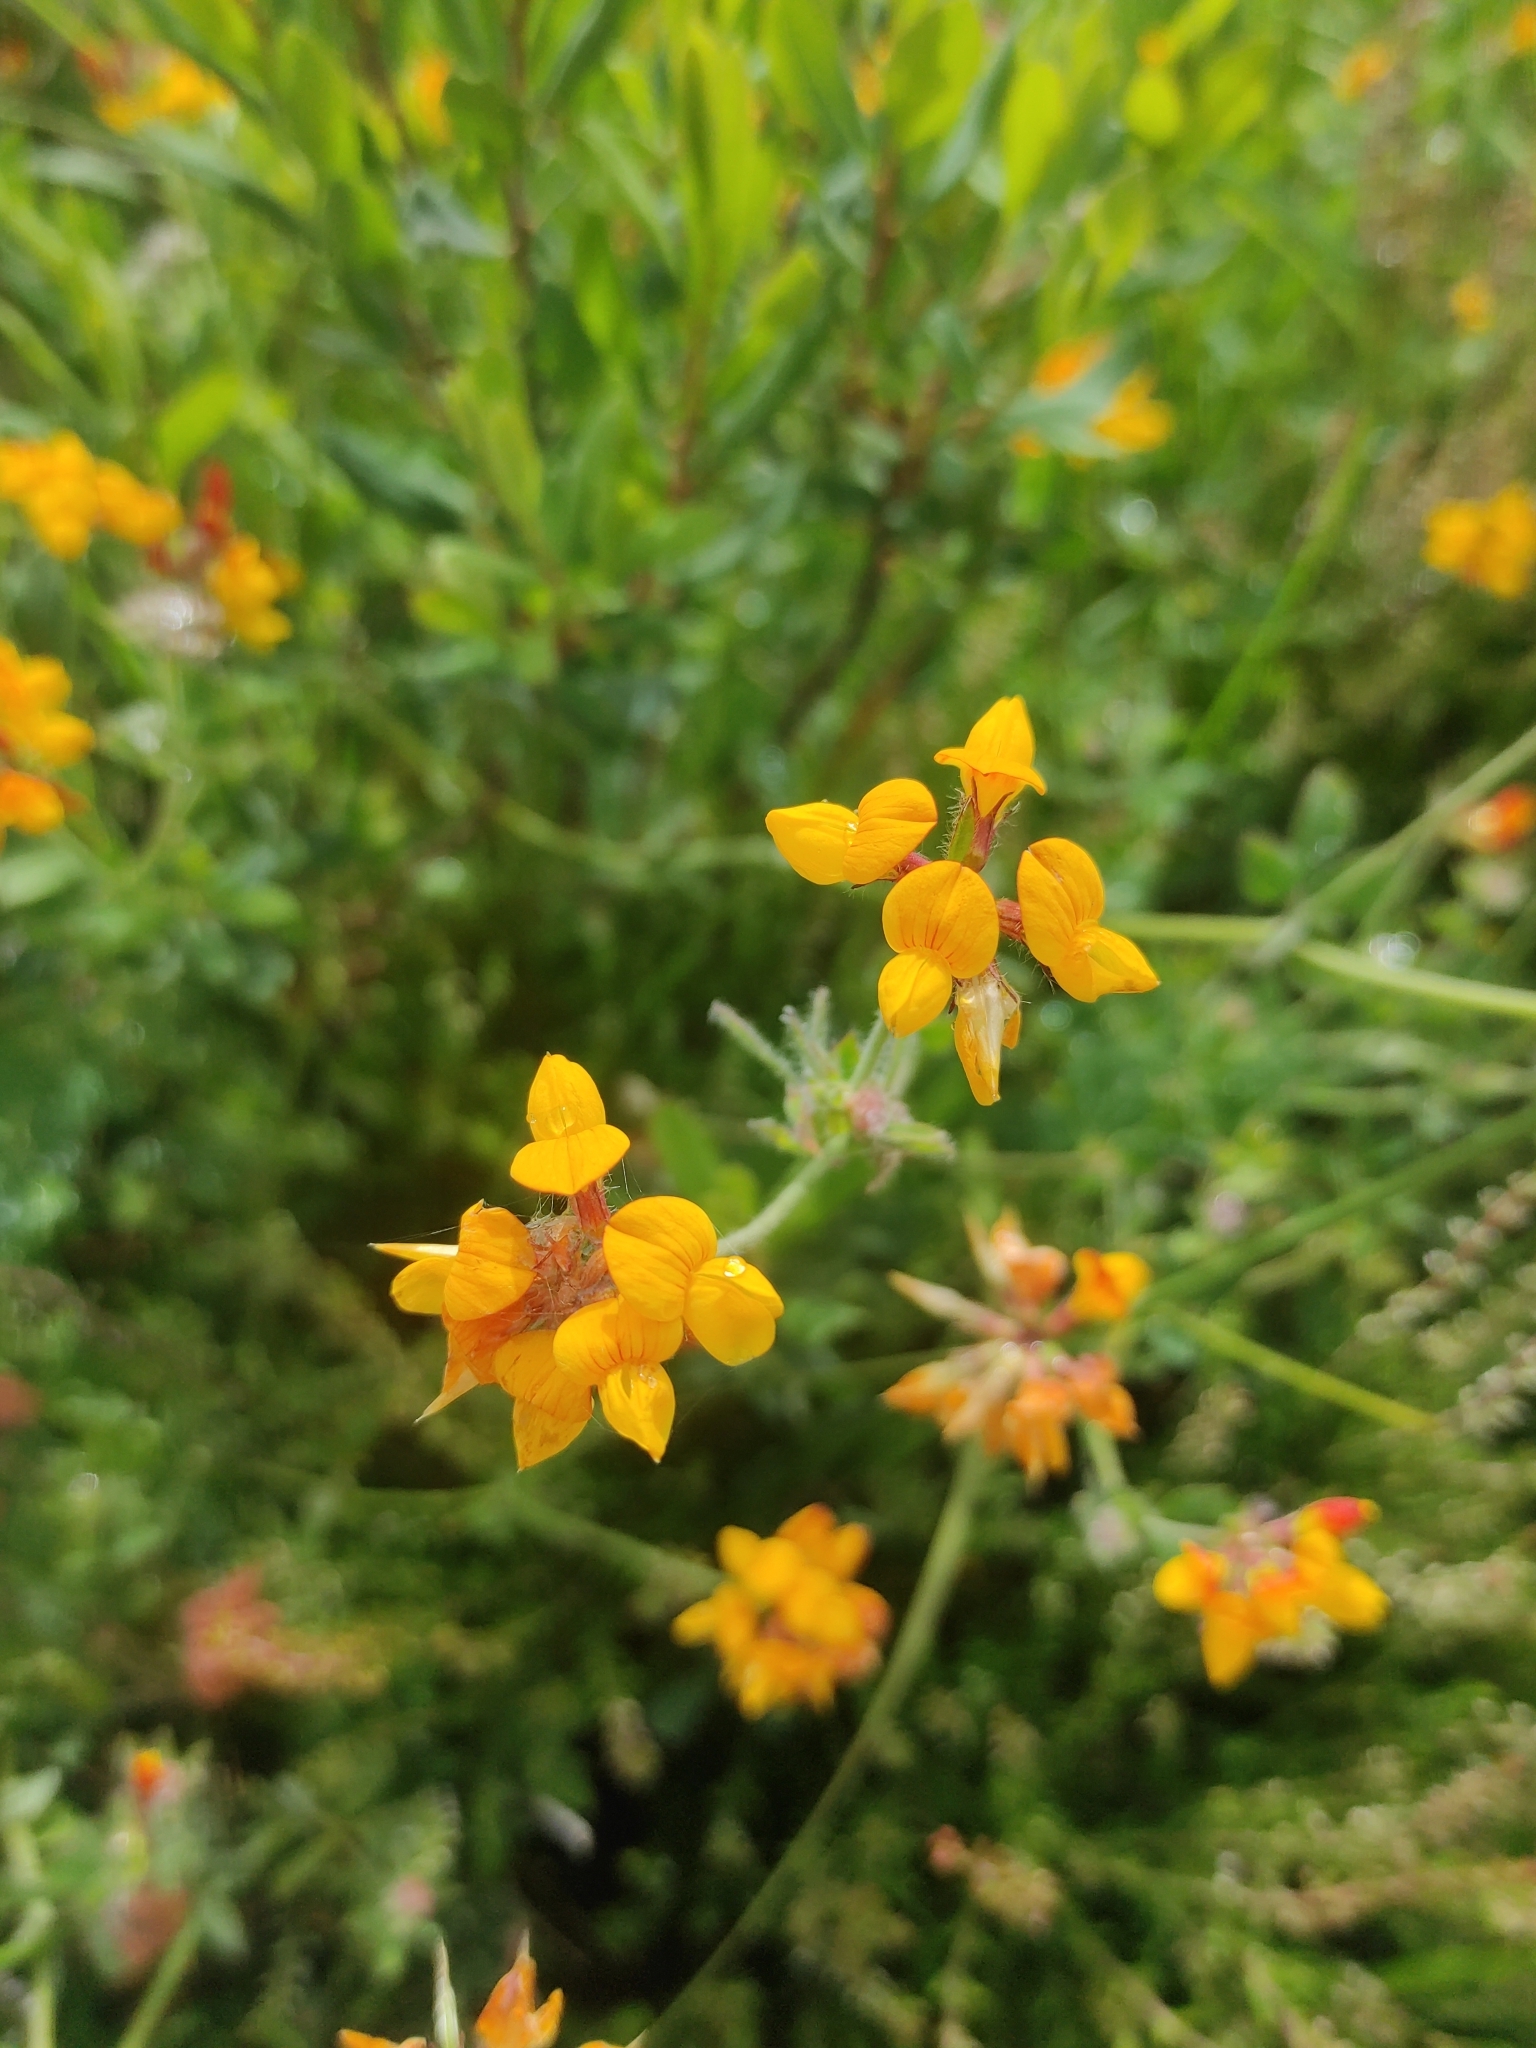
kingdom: Plantae
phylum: Tracheophyta
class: Magnoliopsida
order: Fabales
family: Fabaceae
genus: Lotus
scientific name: Lotus pedunculatus
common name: Greater birdsfoot-trefoil
